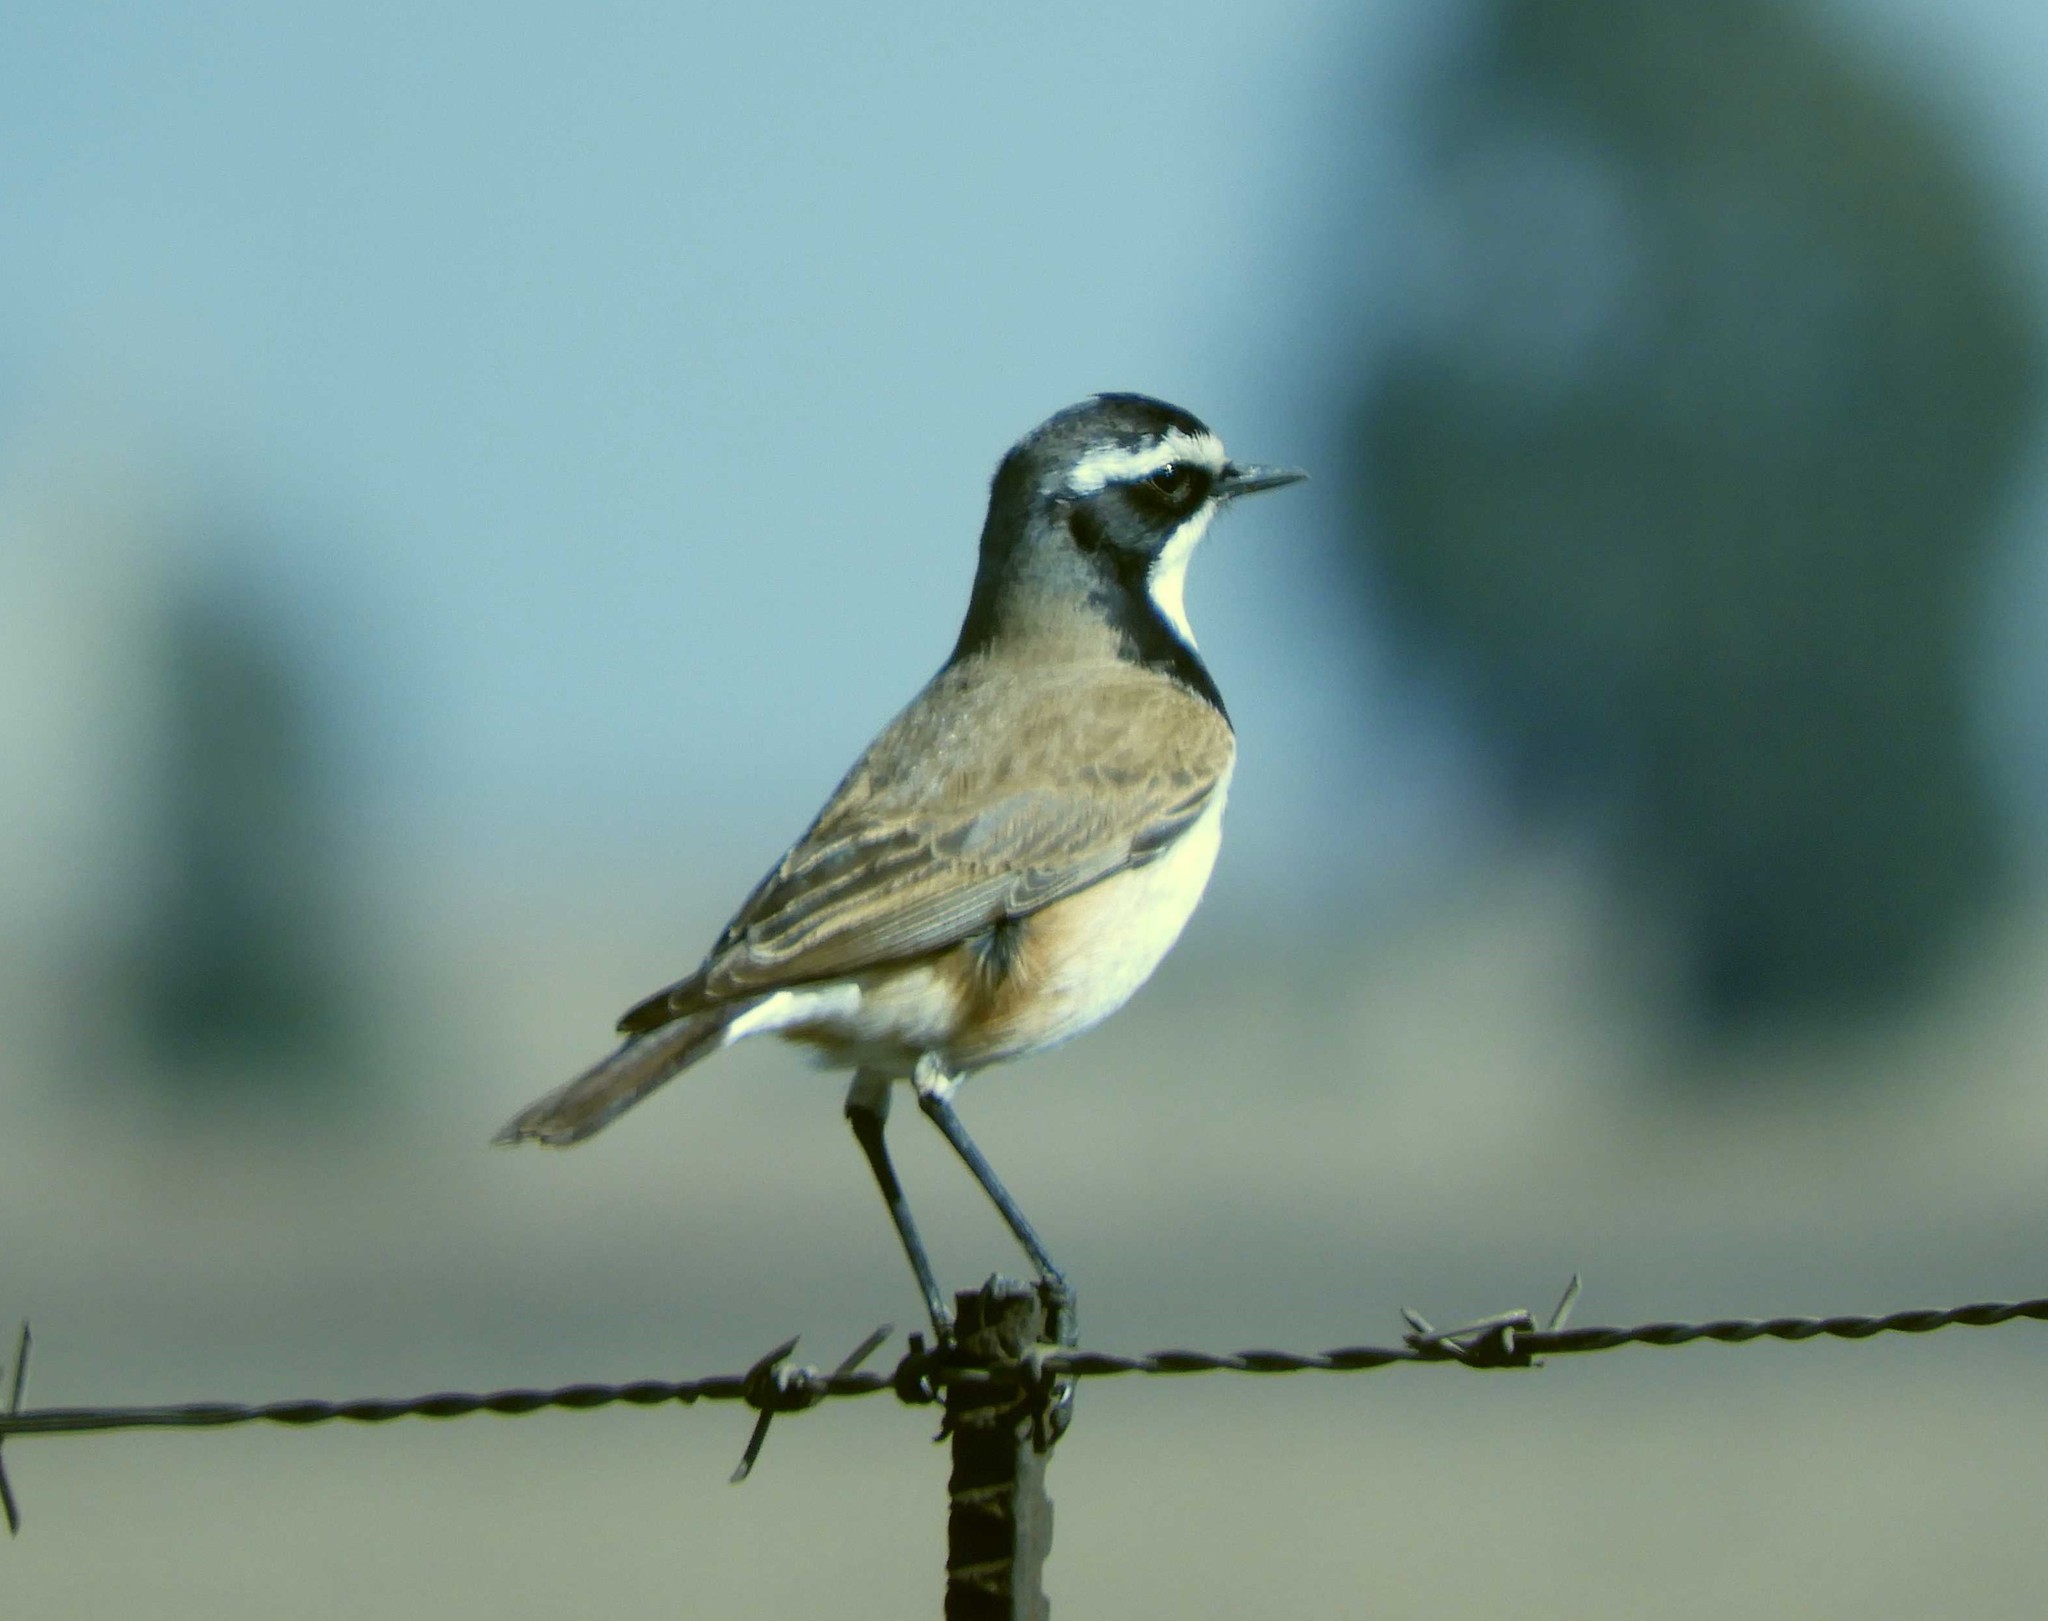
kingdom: Animalia
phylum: Chordata
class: Aves
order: Passeriformes
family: Muscicapidae
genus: Oenanthe
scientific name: Oenanthe pileata
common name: Capped wheatear
